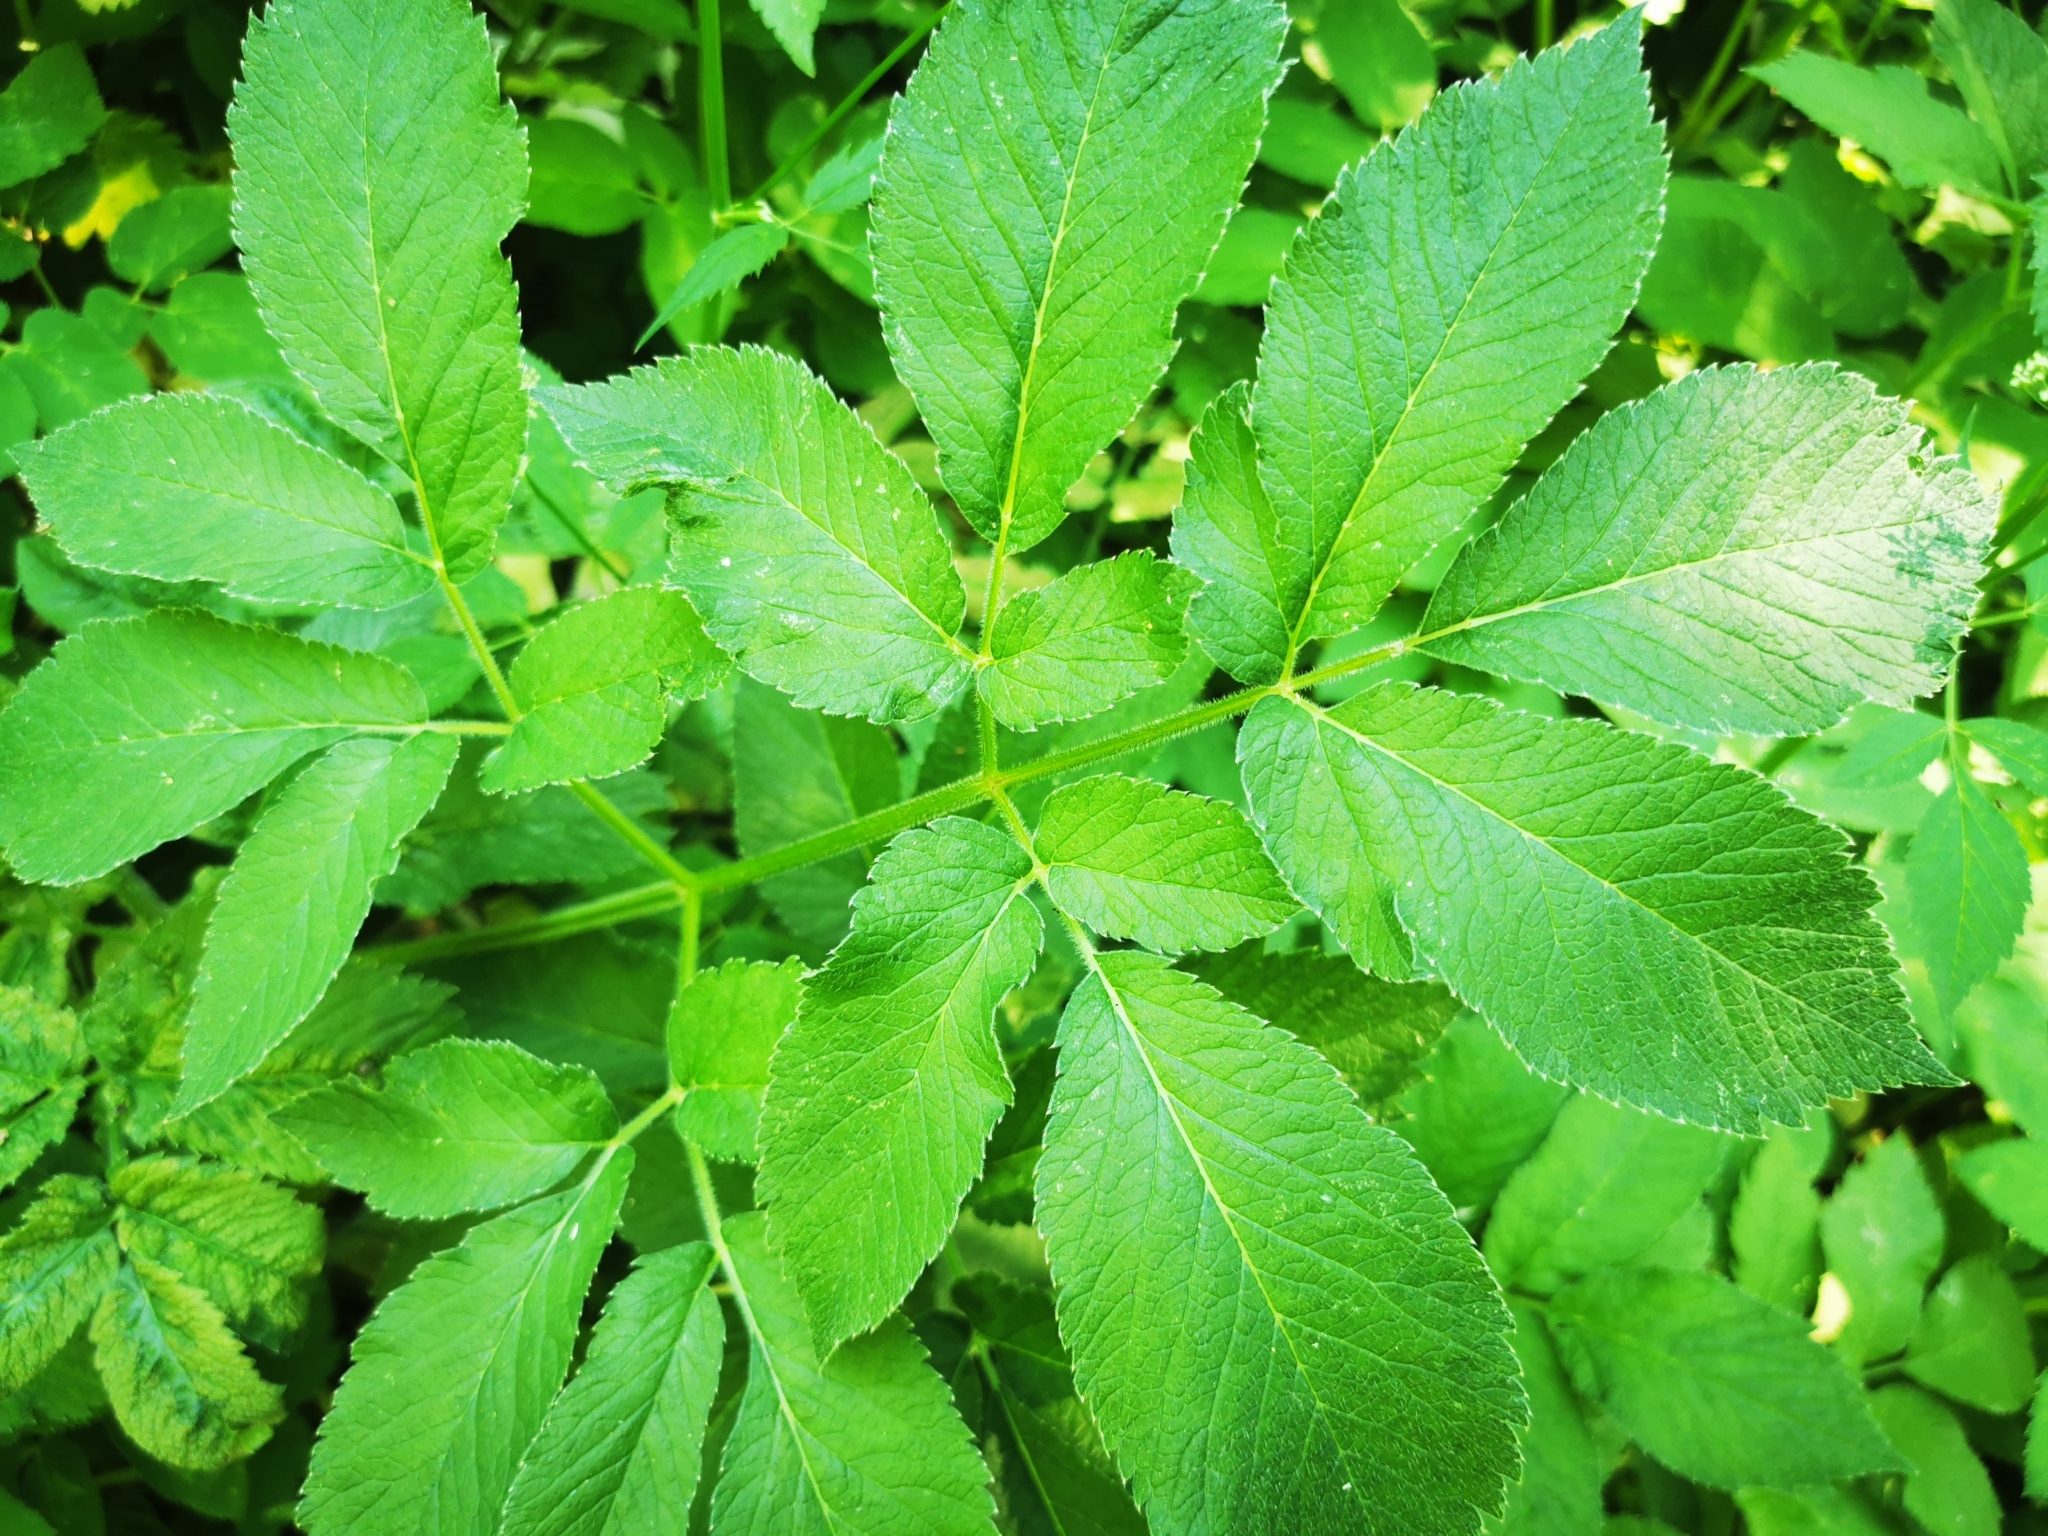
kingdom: Plantae
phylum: Tracheophyta
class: Magnoliopsida
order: Apiales
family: Apiaceae
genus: Chaerophyllum
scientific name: Chaerophyllum aromaticum
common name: Broadleaf chervil
